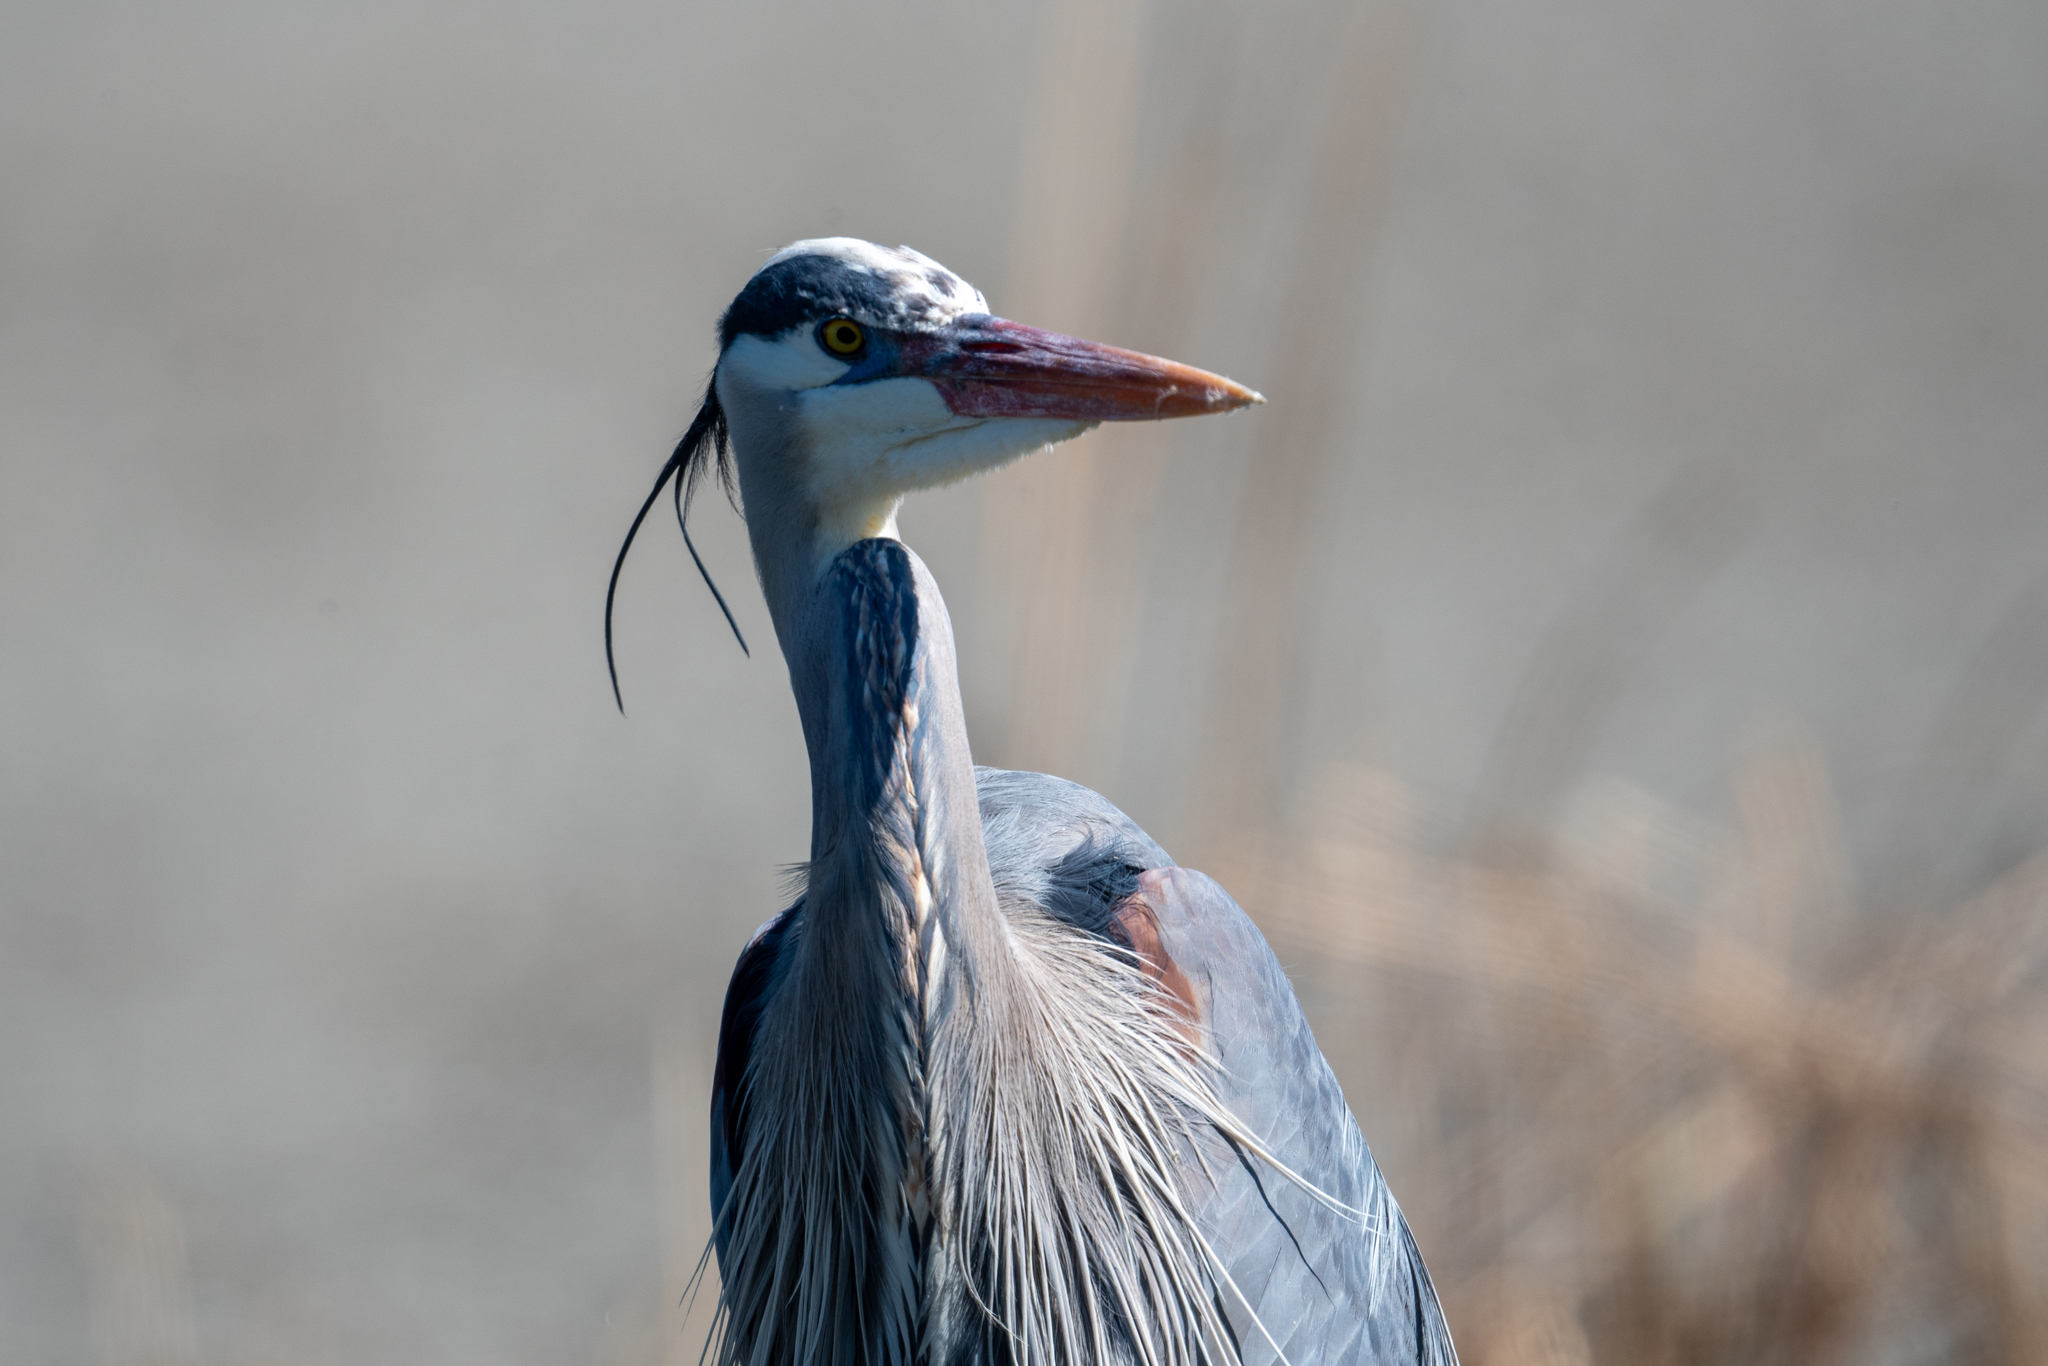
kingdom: Animalia
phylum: Chordata
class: Aves
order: Pelecaniformes
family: Ardeidae
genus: Ardea
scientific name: Ardea herodias
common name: Great blue heron
